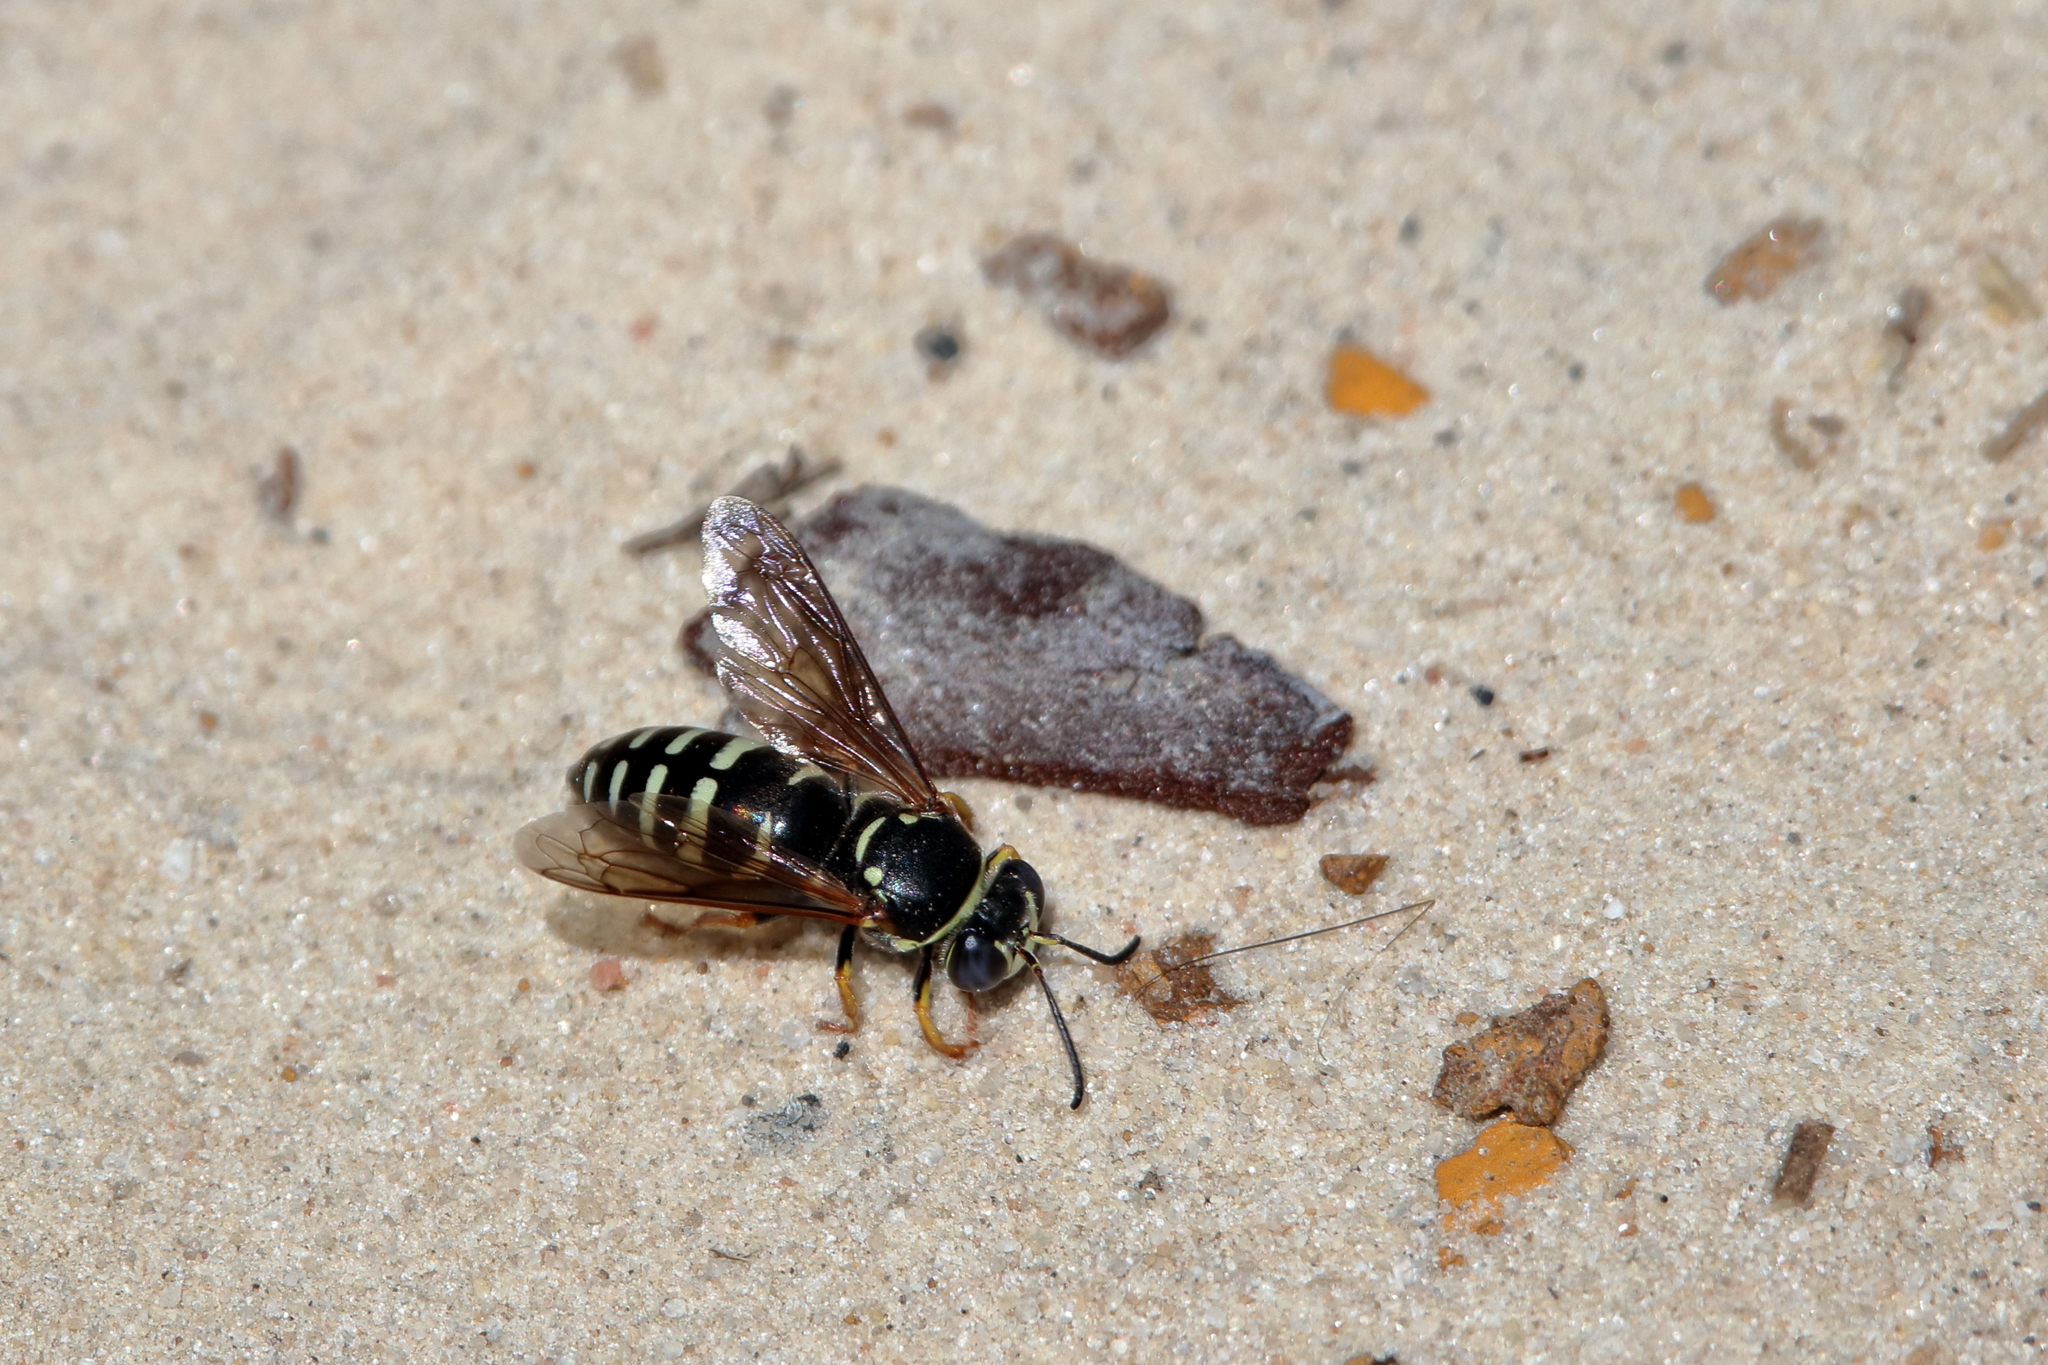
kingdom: Animalia
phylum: Arthropoda
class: Insecta
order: Hymenoptera
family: Crabronidae
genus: Bicyrtes
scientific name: Bicyrtes ventralis
